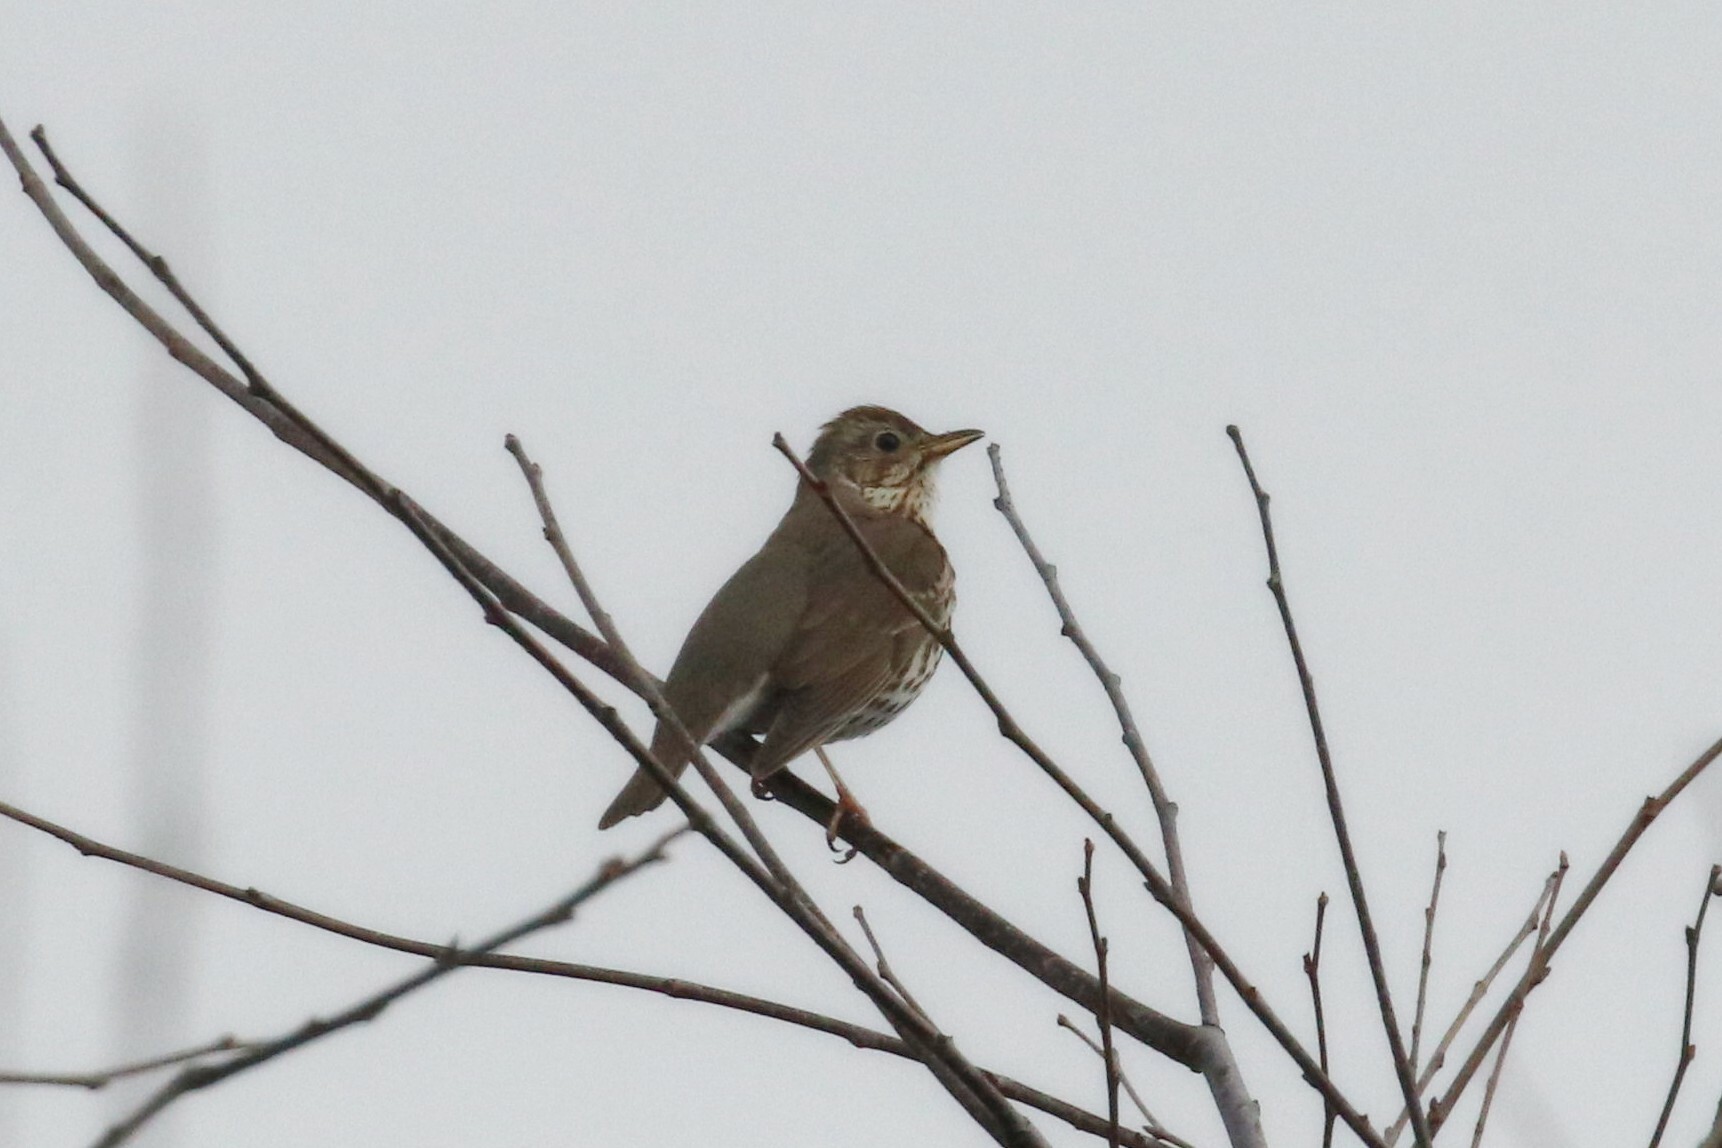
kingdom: Animalia
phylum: Chordata
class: Aves
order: Passeriformes
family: Turdidae
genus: Turdus
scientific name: Turdus philomelos
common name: Song thrush
